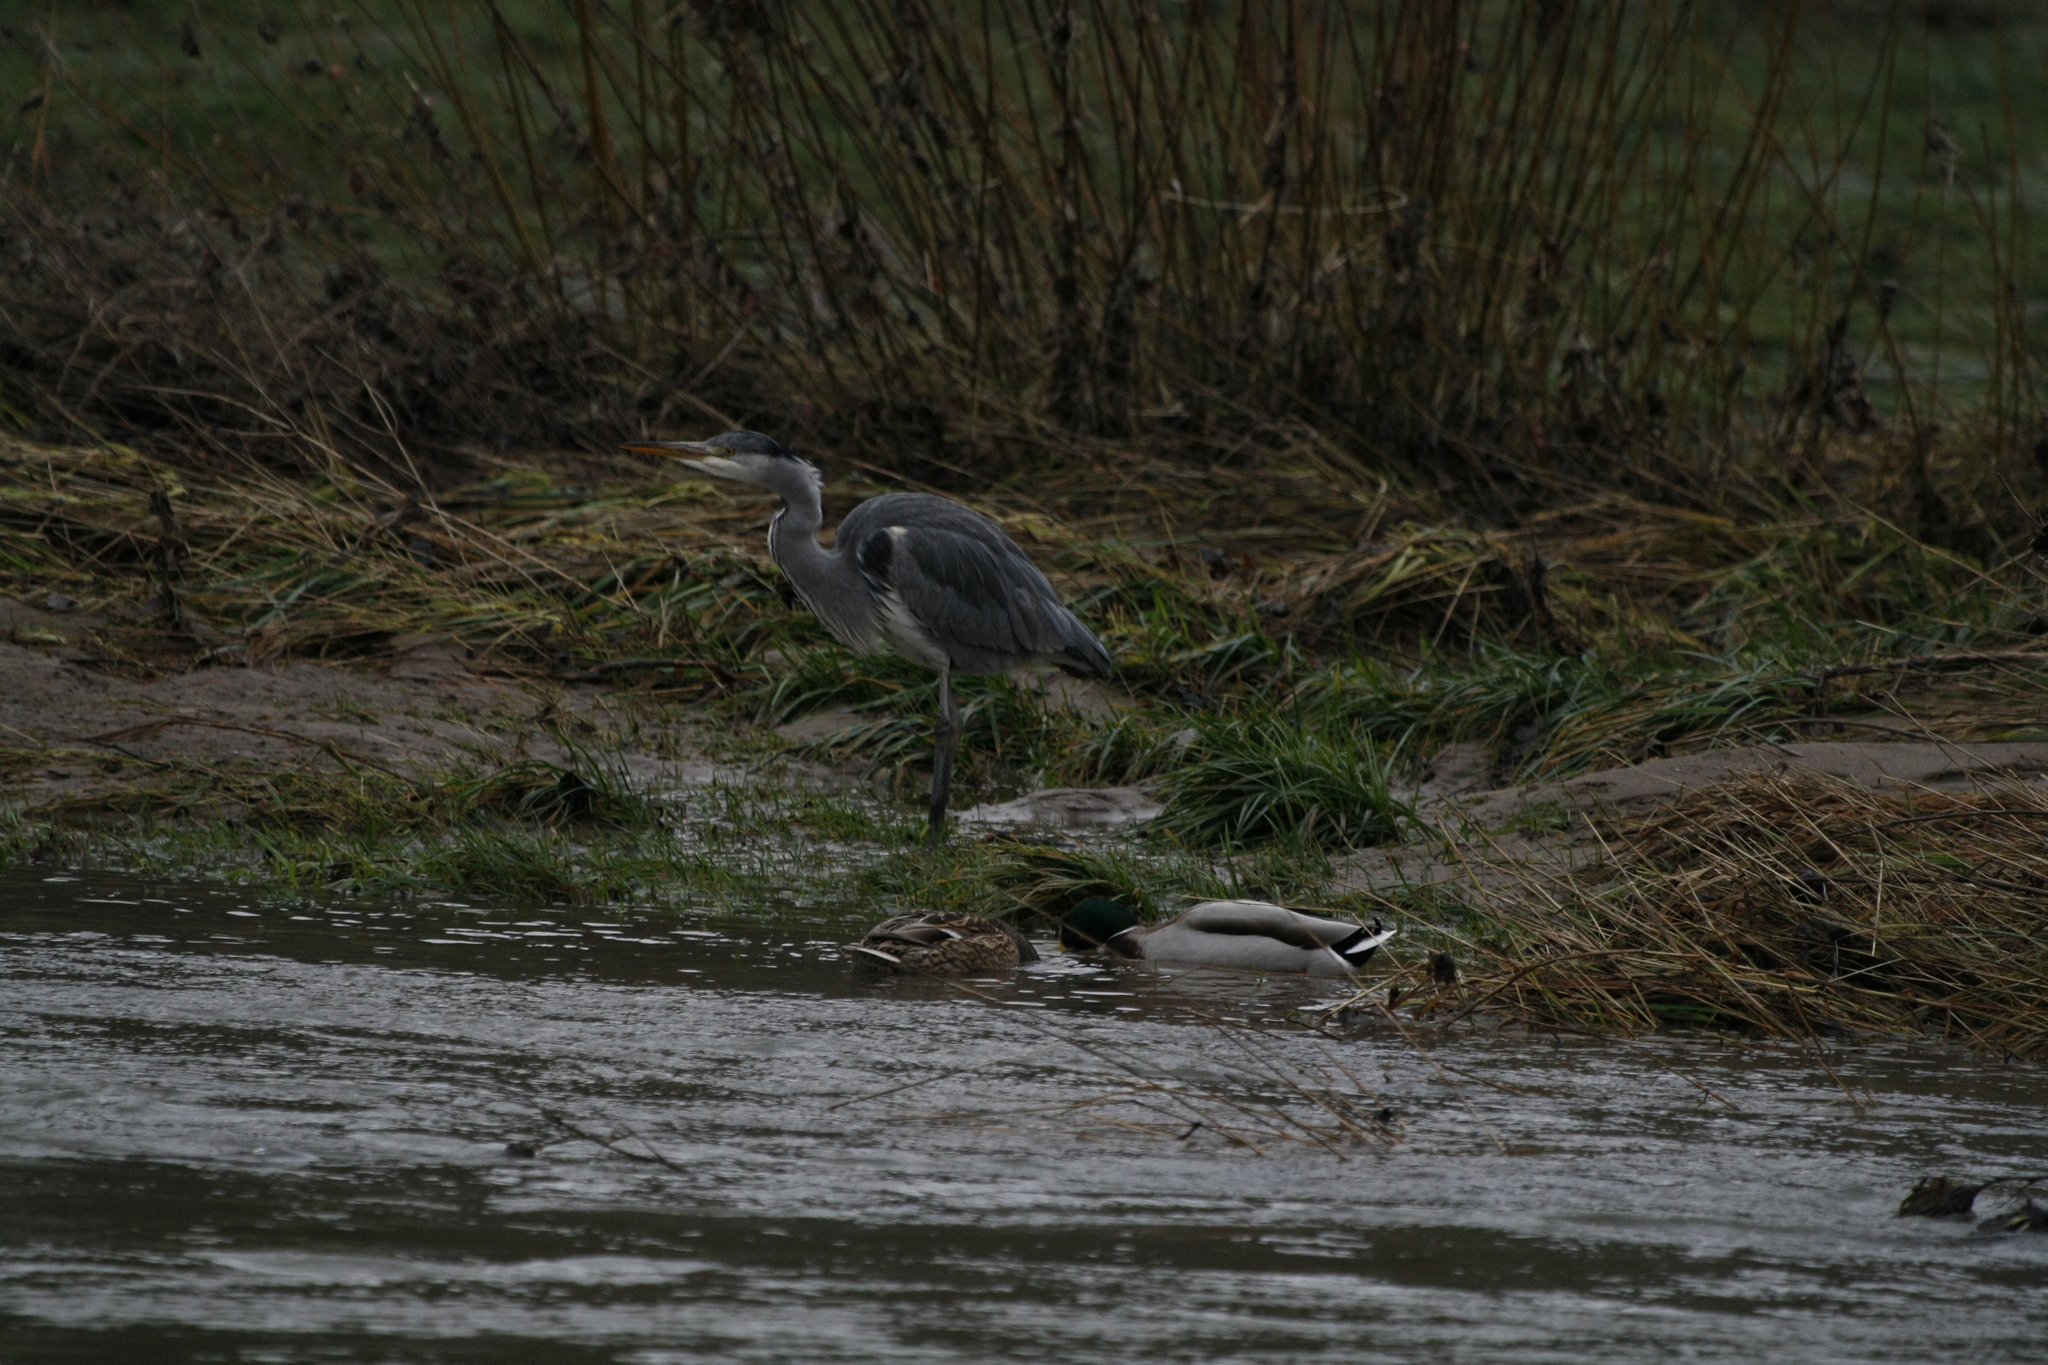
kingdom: Animalia
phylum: Chordata
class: Aves
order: Pelecaniformes
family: Ardeidae
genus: Ardea
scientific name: Ardea cinerea
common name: Grey heron
